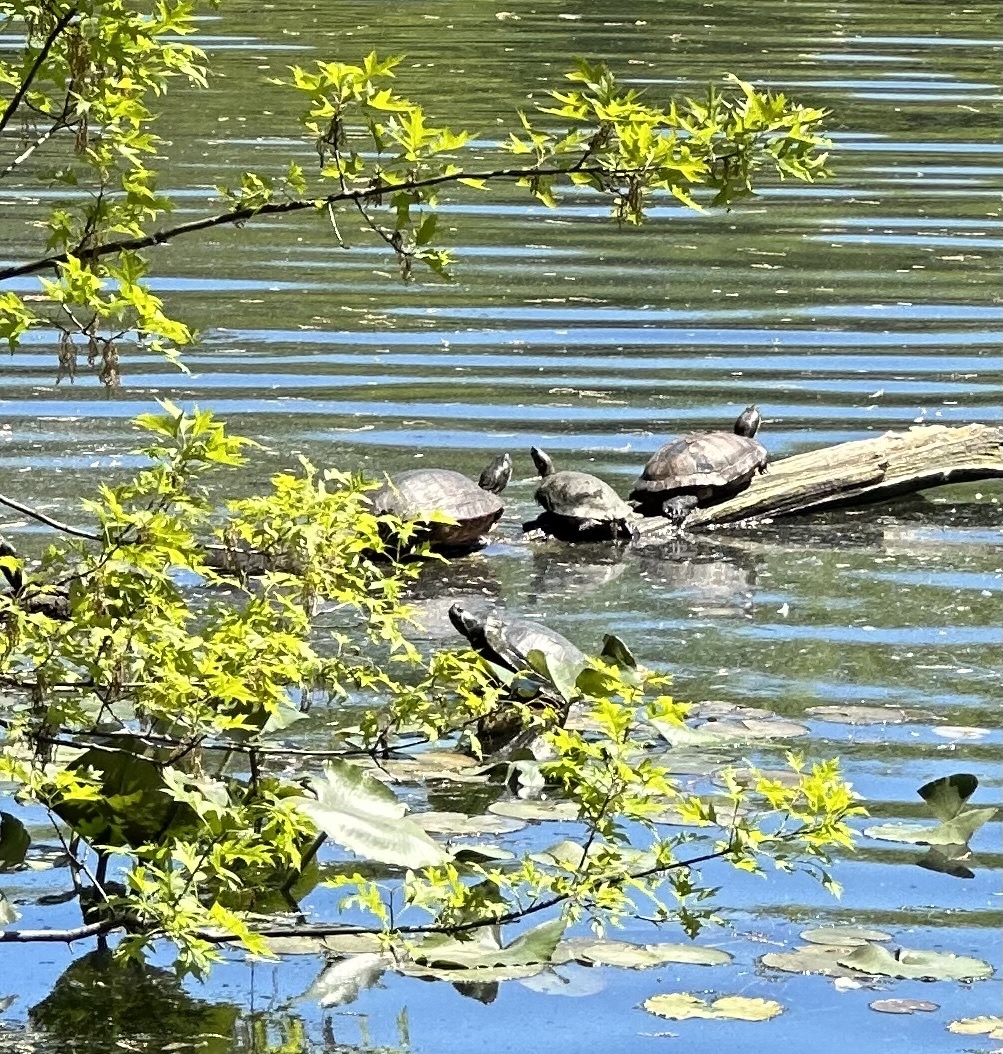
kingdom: Animalia
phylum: Chordata
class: Testudines
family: Emydidae
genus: Trachemys
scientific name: Trachemys scripta
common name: Slider
